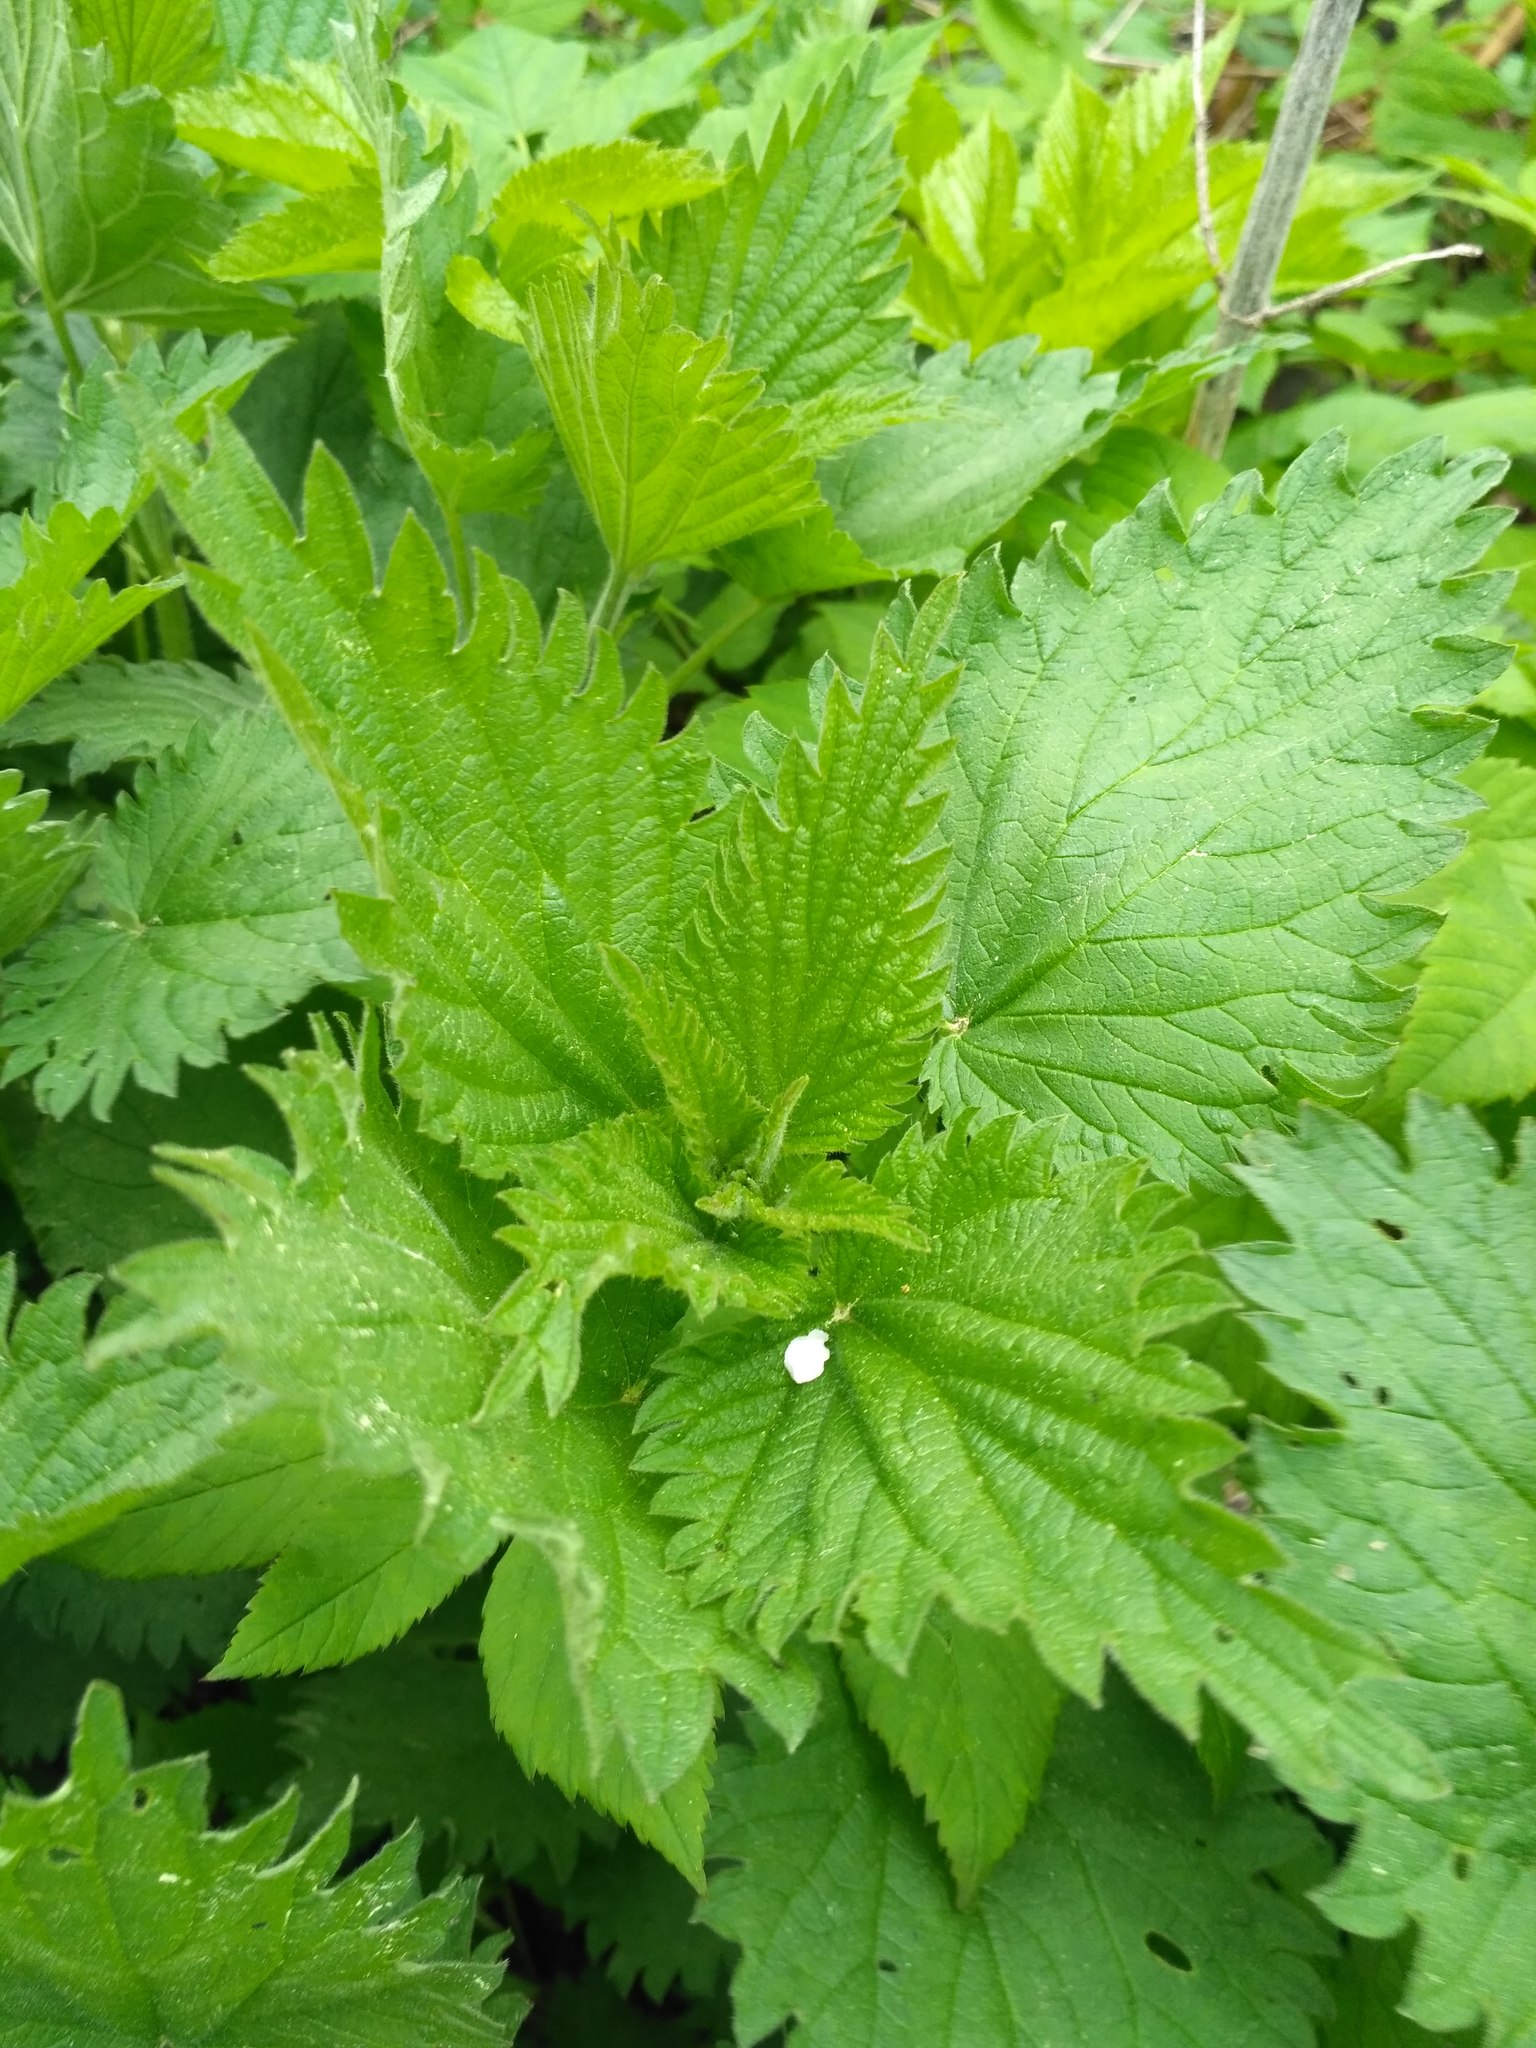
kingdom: Plantae
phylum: Tracheophyta
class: Magnoliopsida
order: Rosales
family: Urticaceae
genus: Urtica
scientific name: Urtica dioica
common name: Common nettle
